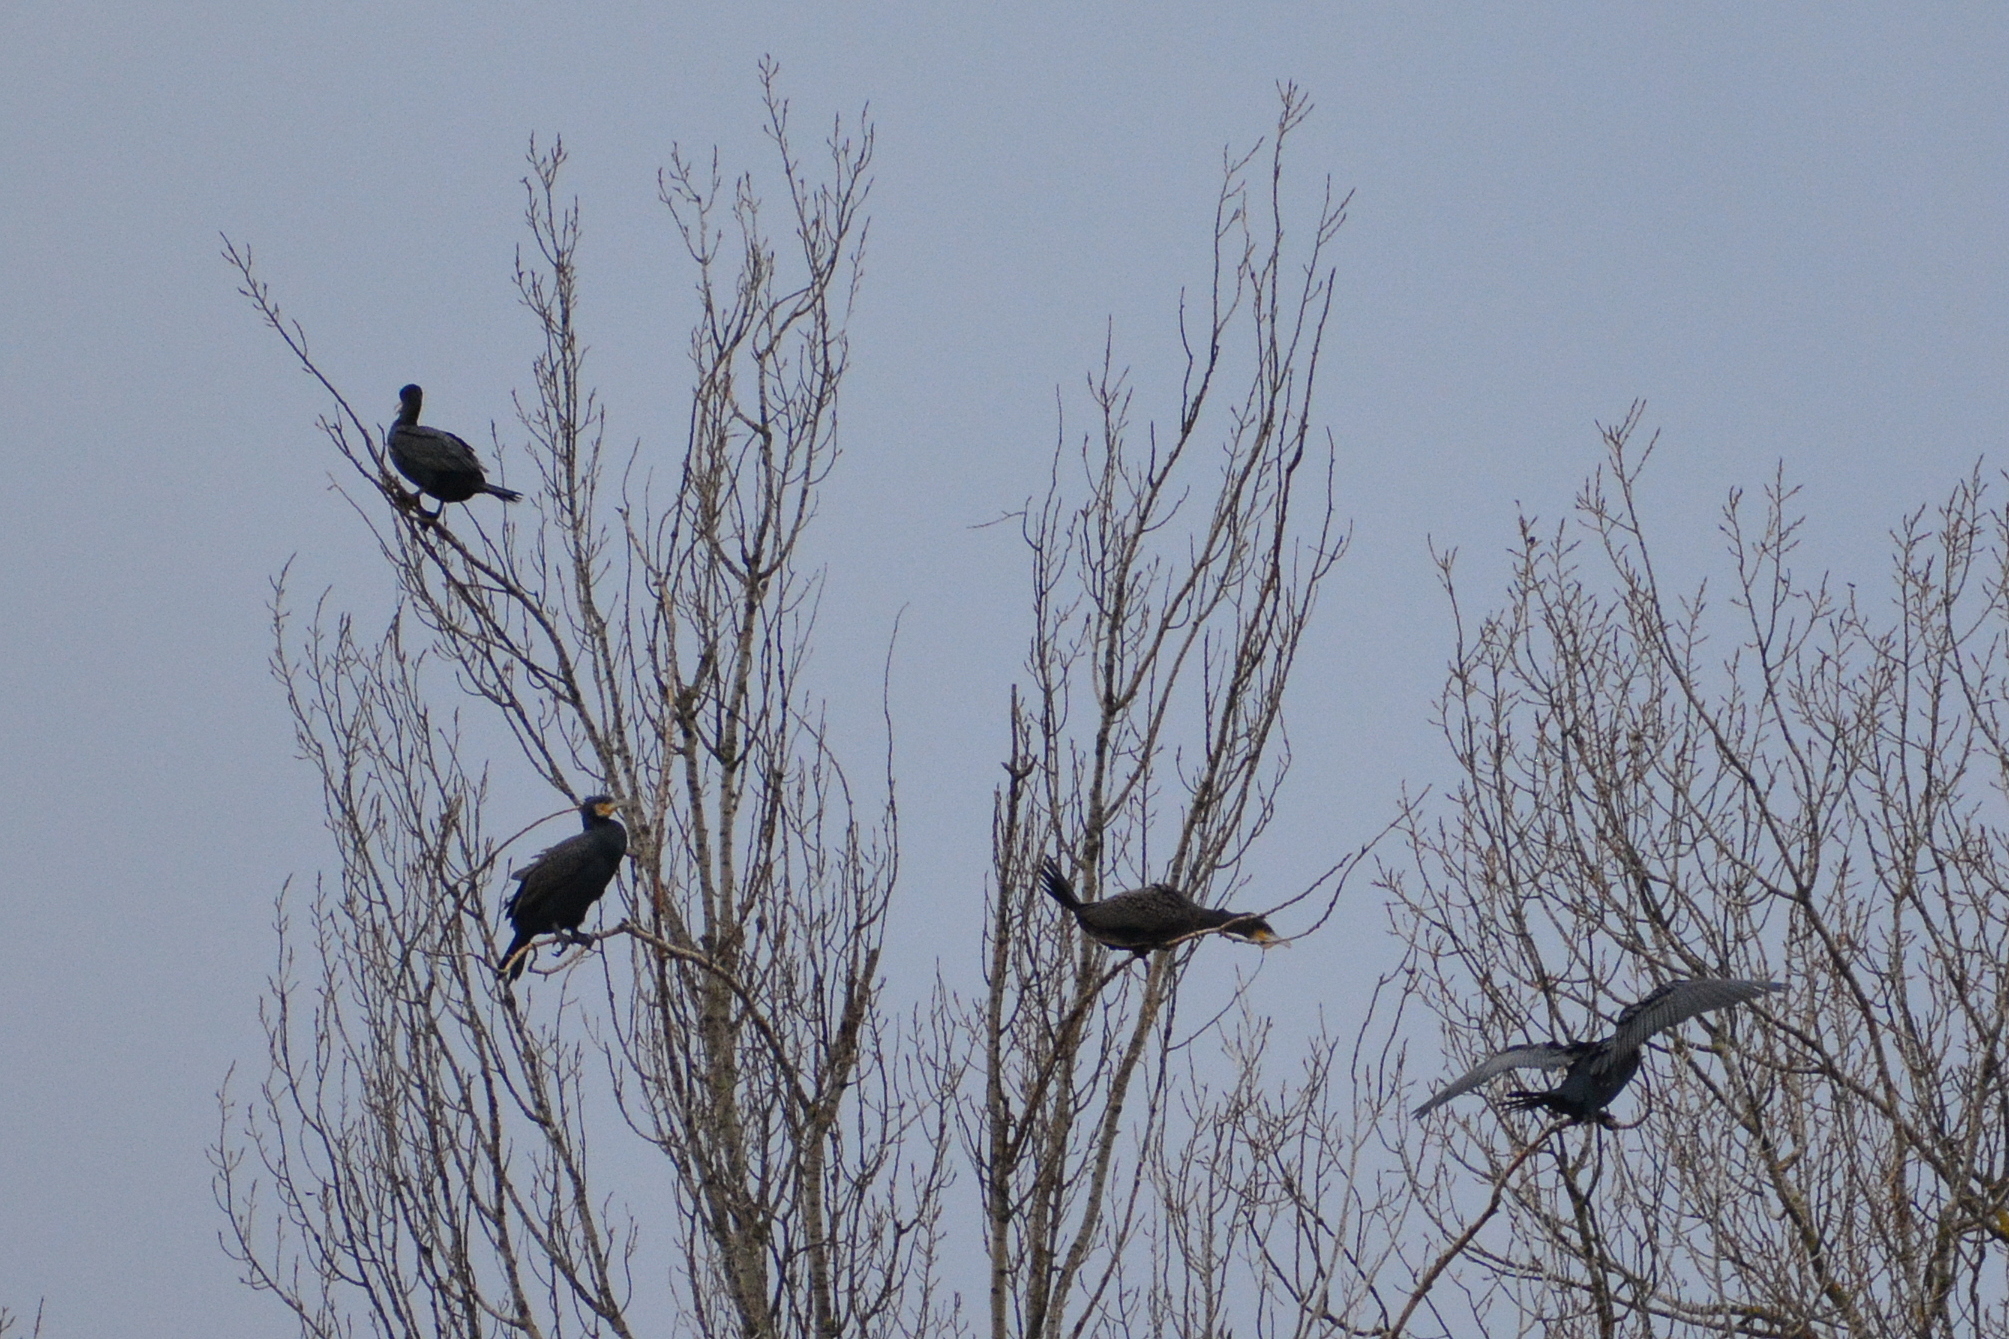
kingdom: Animalia
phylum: Chordata
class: Aves
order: Suliformes
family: Phalacrocoracidae
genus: Phalacrocorax
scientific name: Phalacrocorax carbo
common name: Great cormorant
